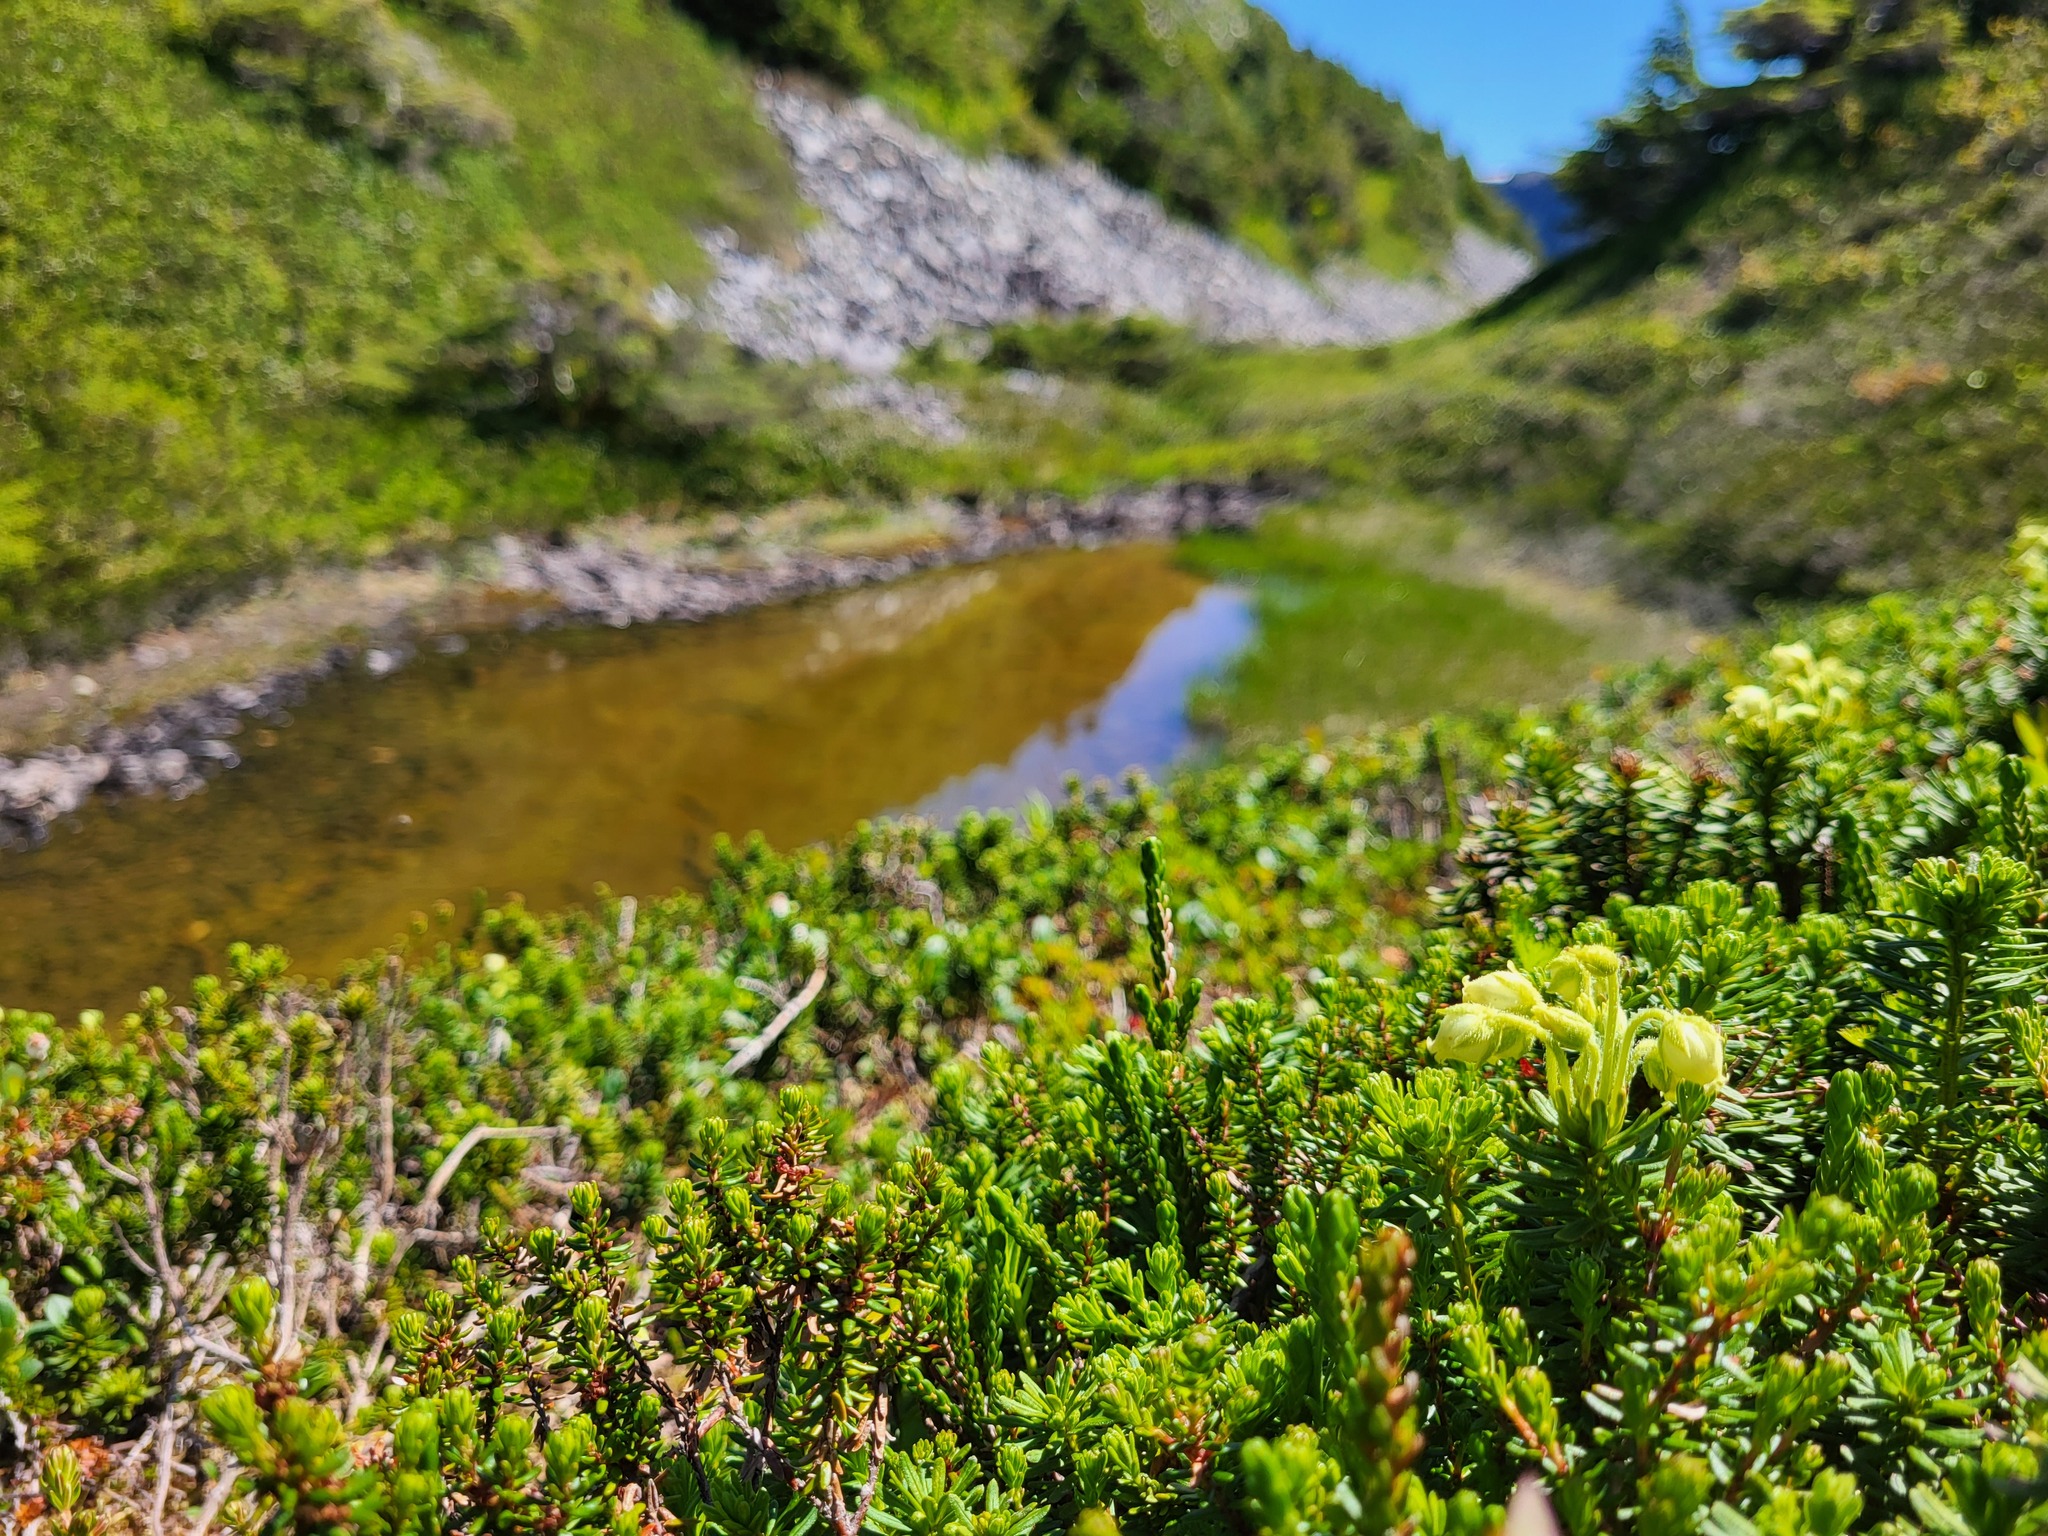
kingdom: Plantae
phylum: Tracheophyta
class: Magnoliopsida
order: Ericales
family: Ericaceae
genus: Phyllodoce
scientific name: Phyllodoce glanduliflora
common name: Cream mountain heather
